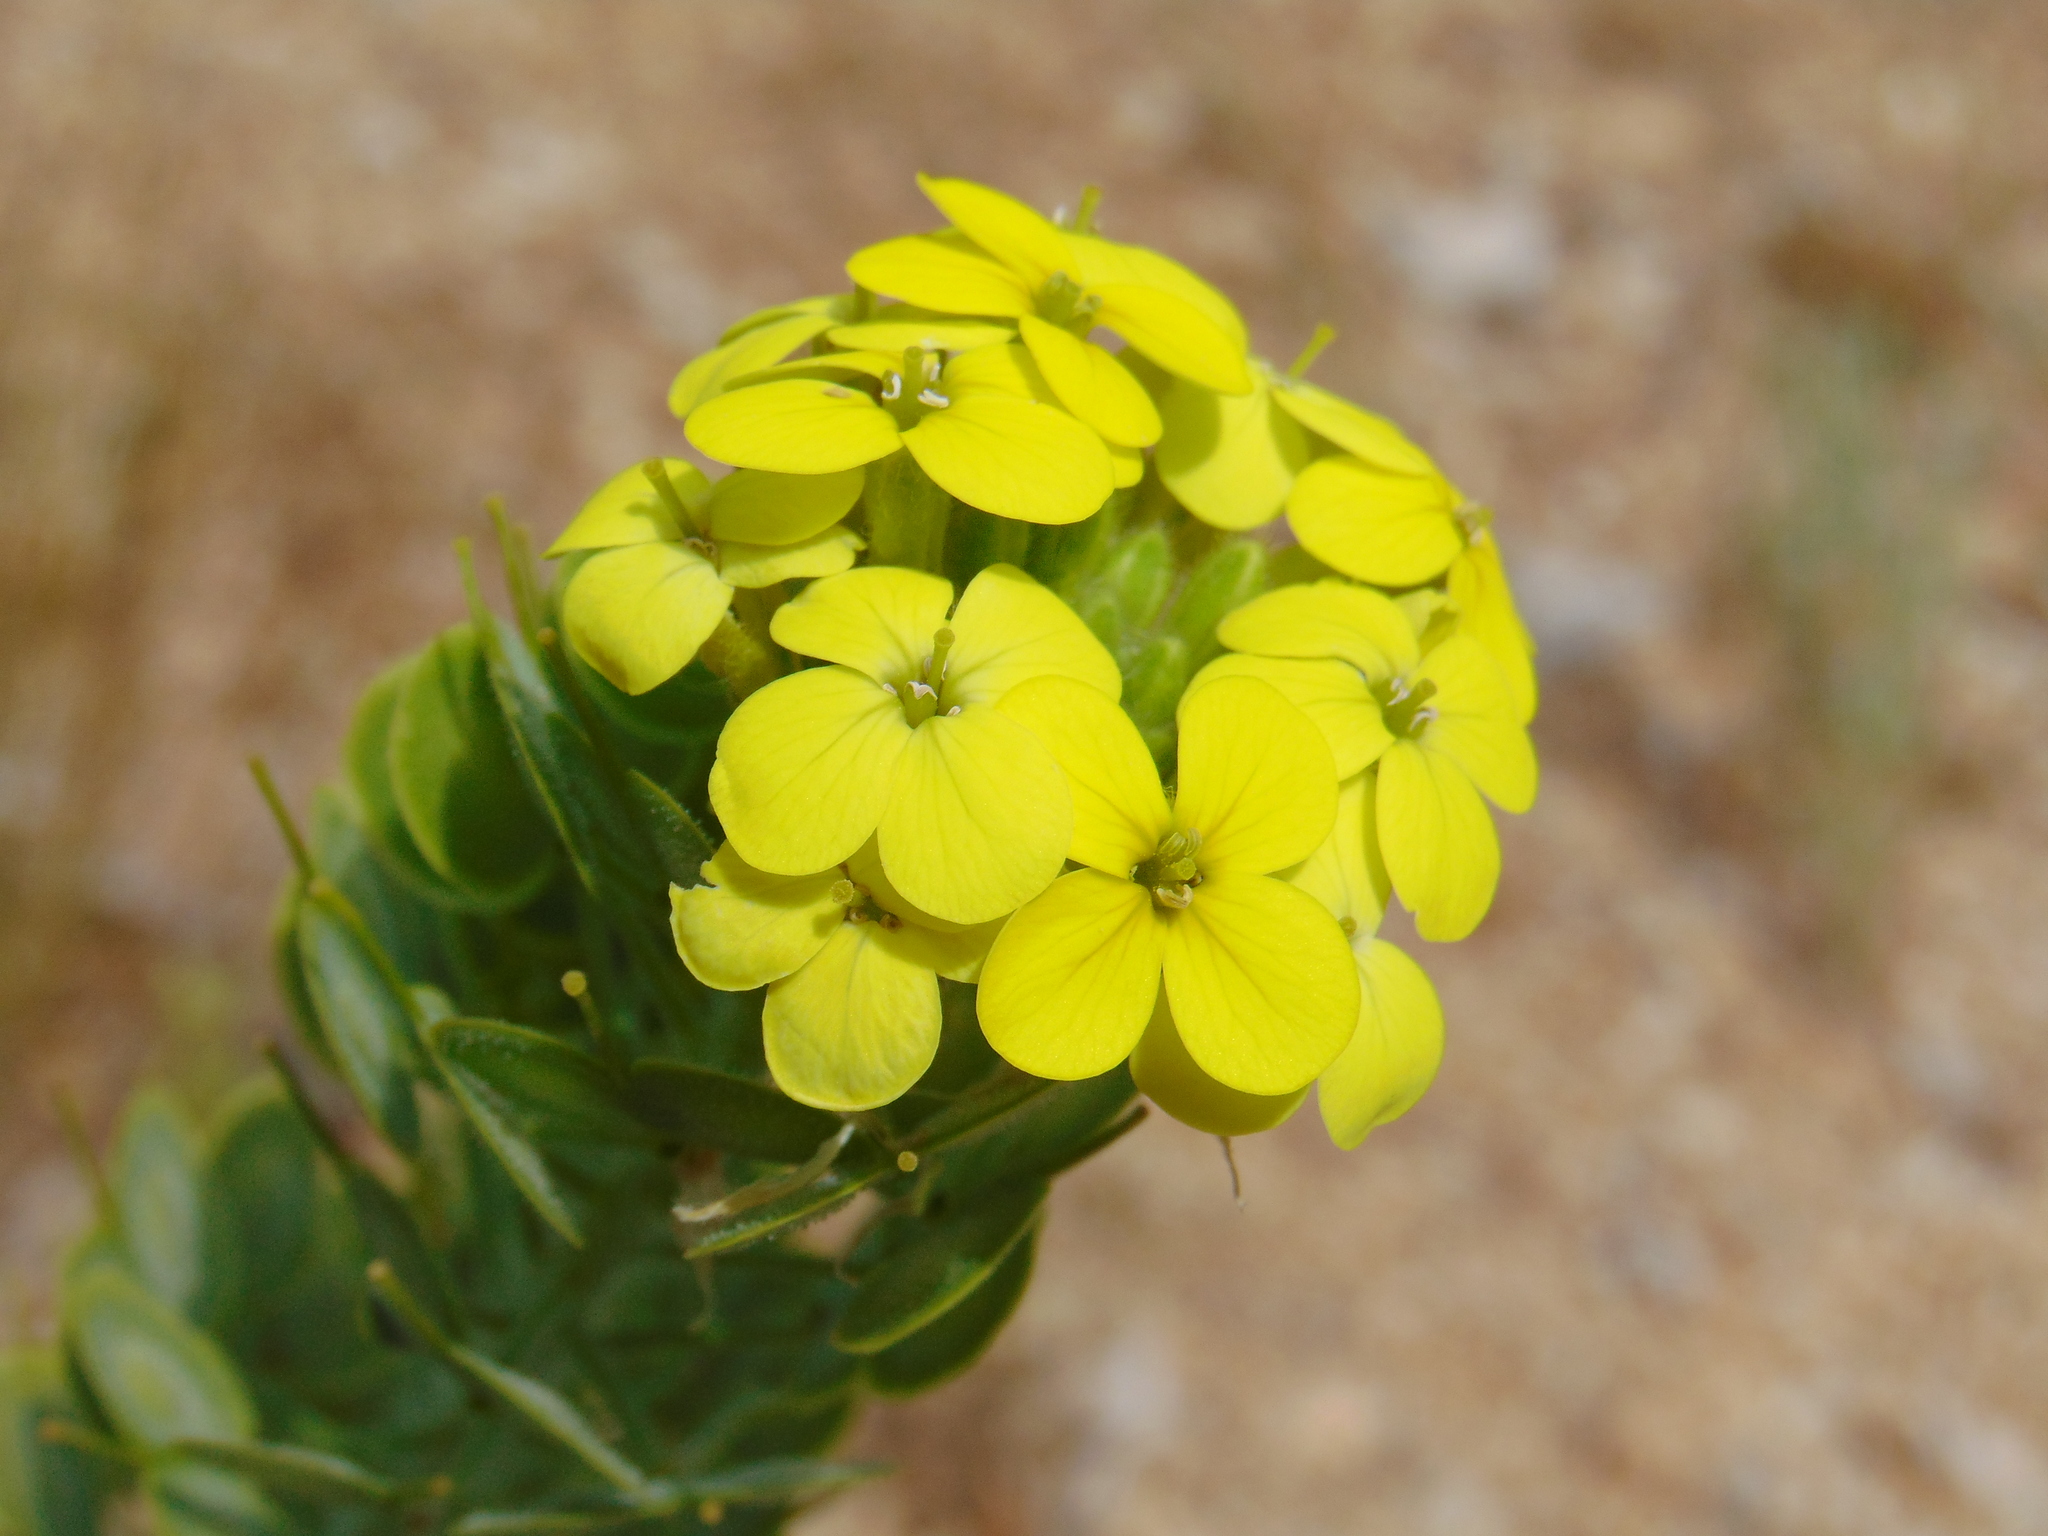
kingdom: Plantae
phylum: Tracheophyta
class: Magnoliopsida
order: Brassicales
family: Brassicaceae
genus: Biscutella
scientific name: Biscutella cichoriifolia
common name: Chicory-leaf buckler mustard
